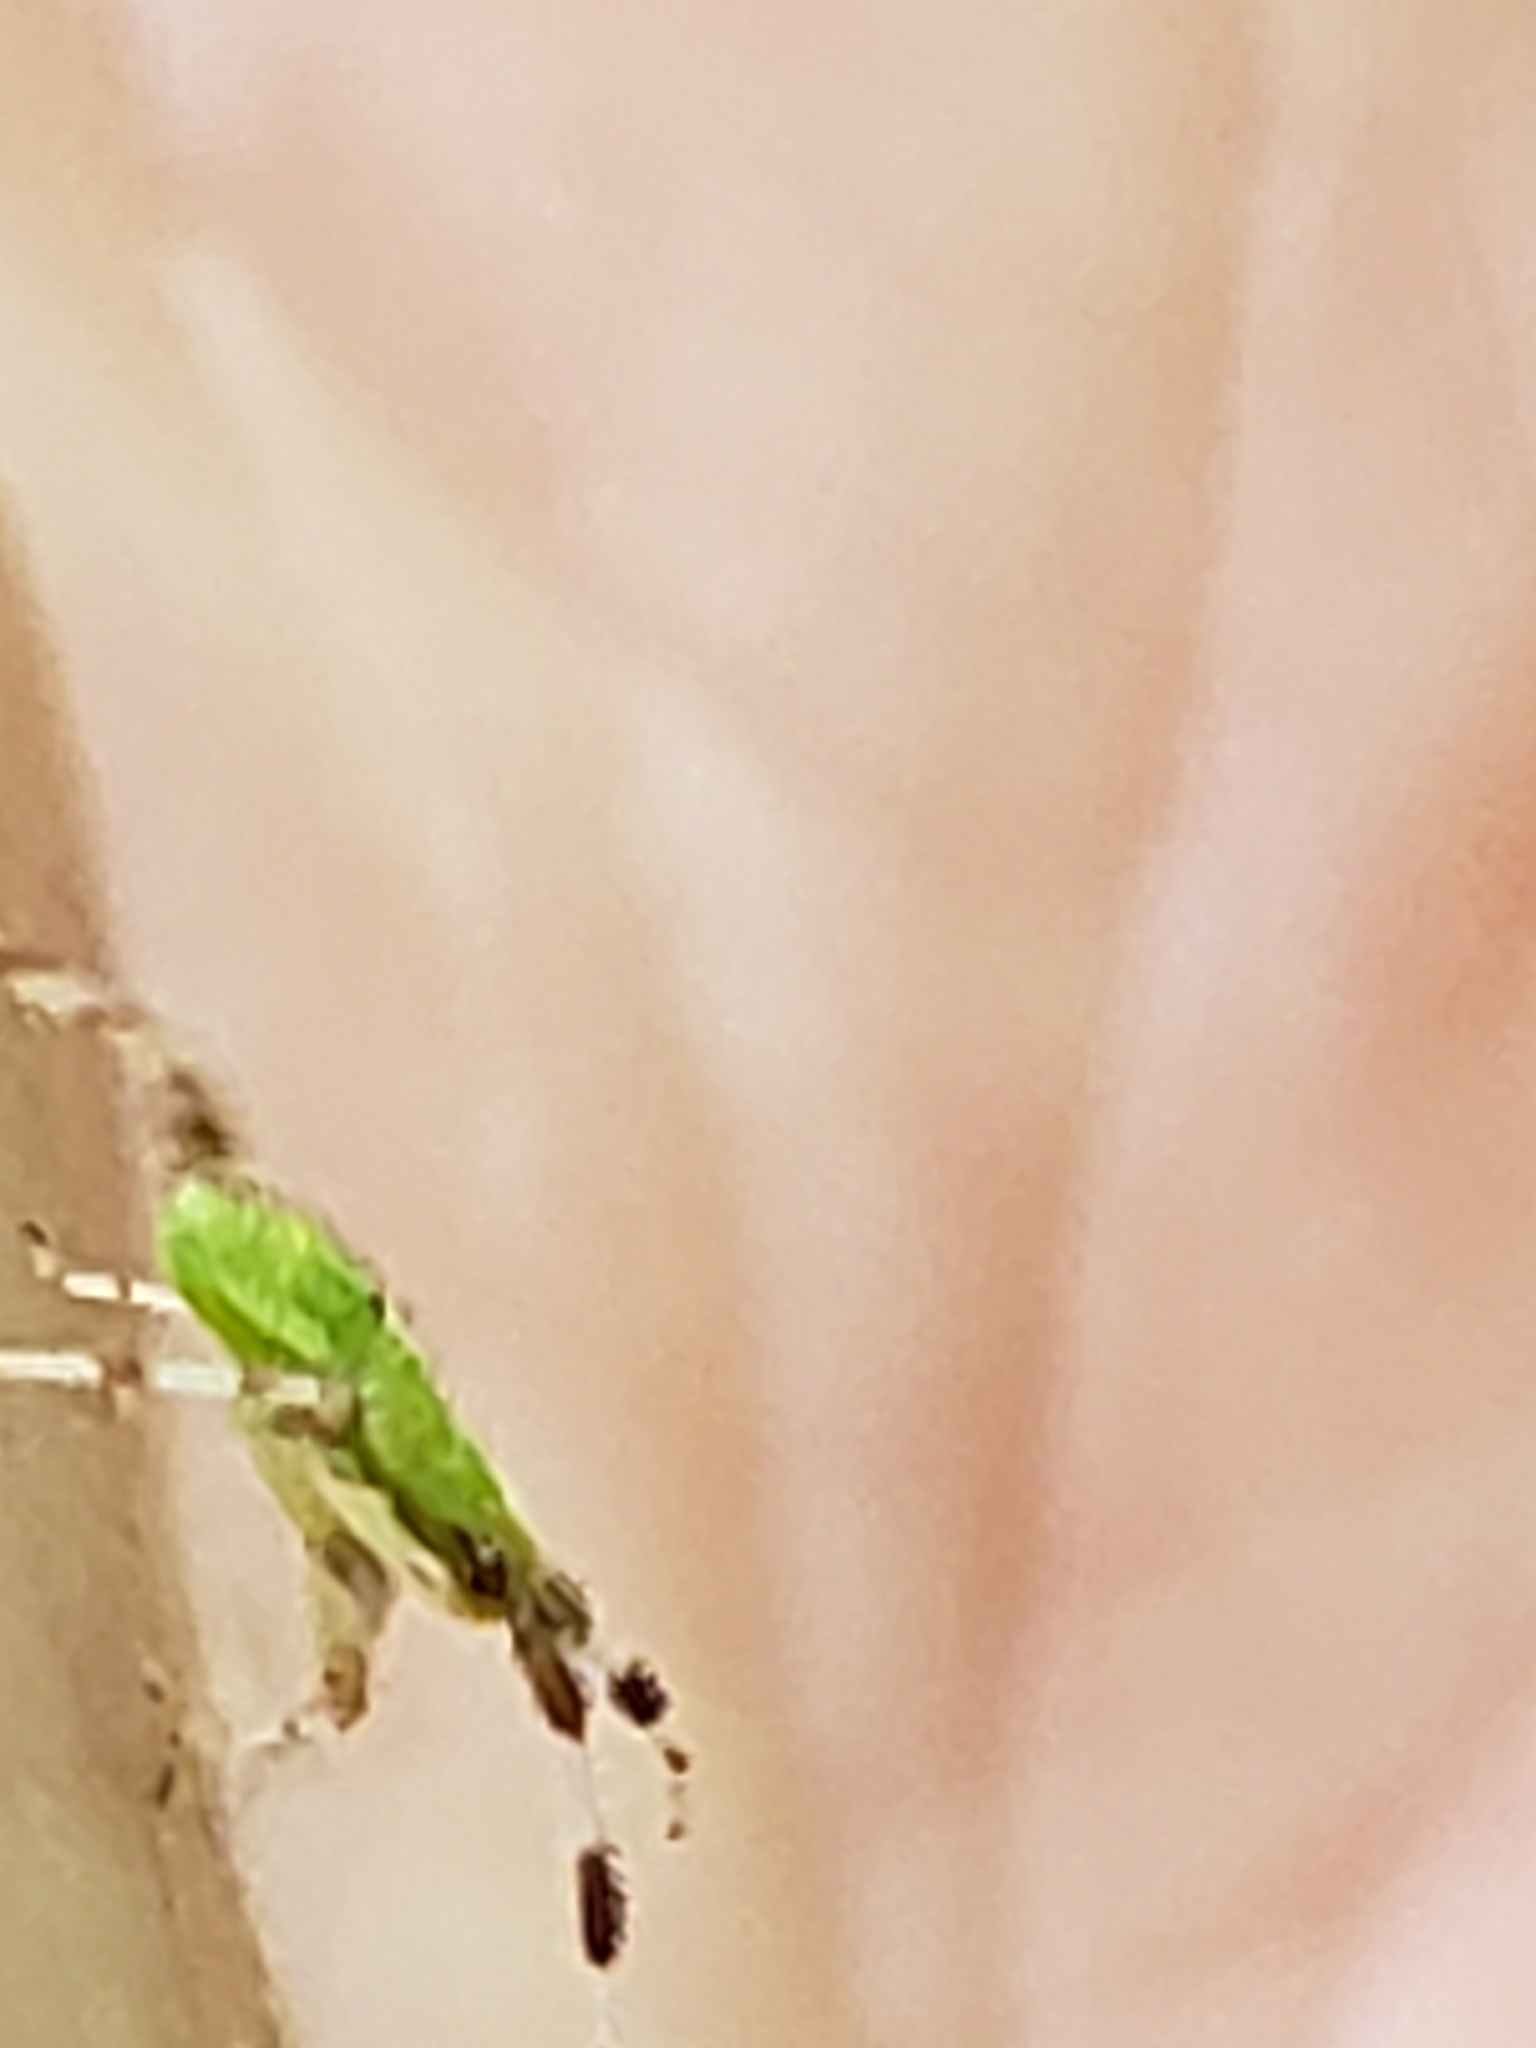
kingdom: Animalia
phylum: Arthropoda
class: Insecta
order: Hemiptera
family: Miridae
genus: Neurocolpus
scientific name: Neurocolpus nubilus
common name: Clouded plant bug
